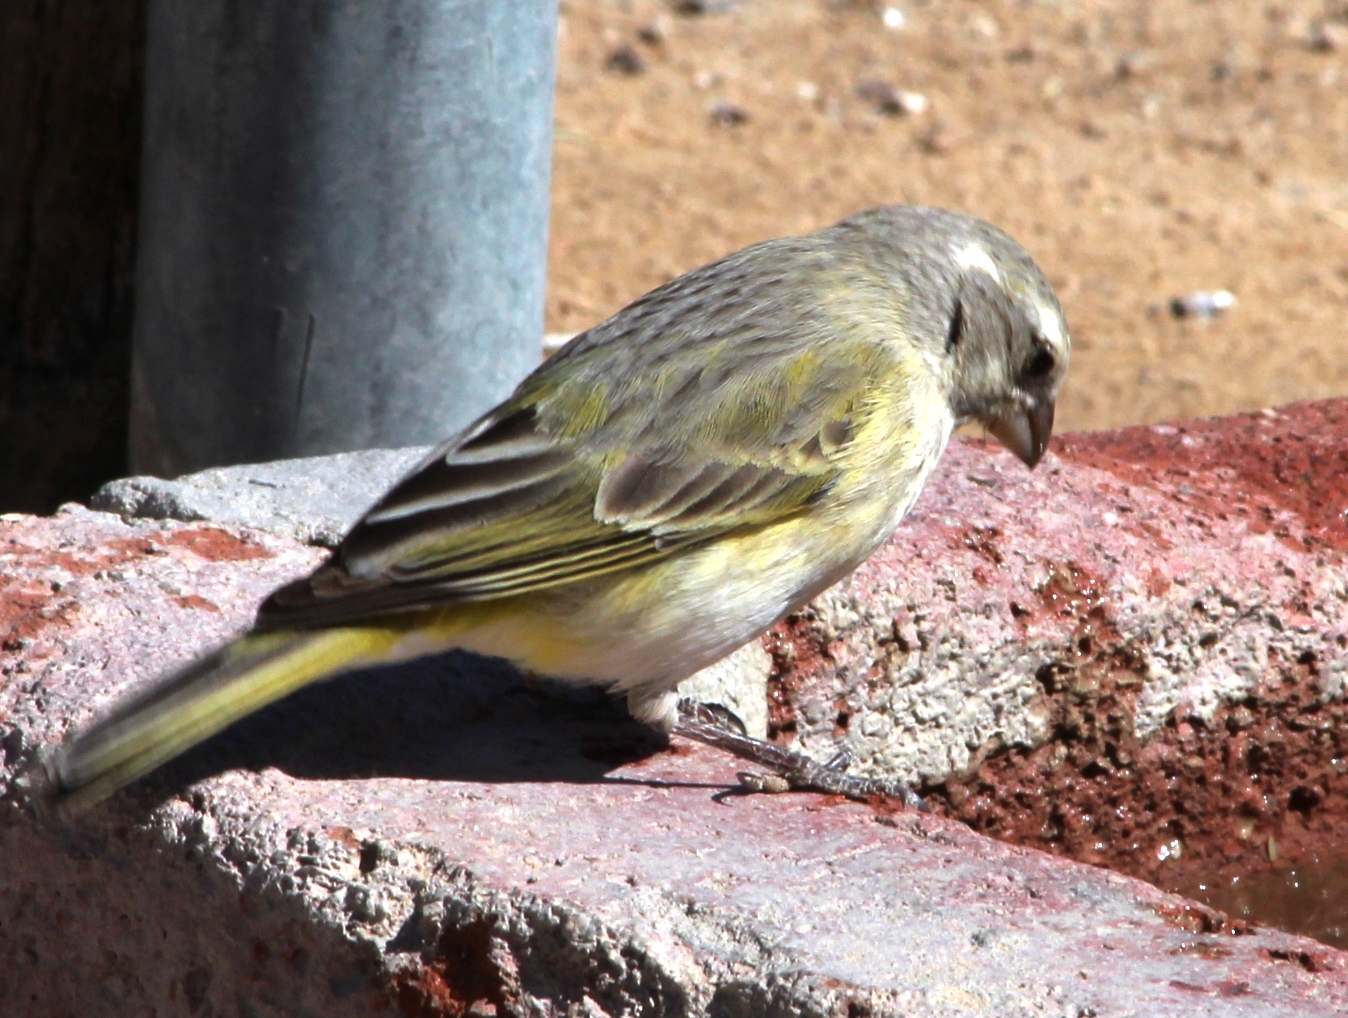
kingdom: Animalia
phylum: Chordata
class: Aves
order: Passeriformes
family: Fringillidae
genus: Crithagra
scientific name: Crithagra flaviventris
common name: Yellow canary
